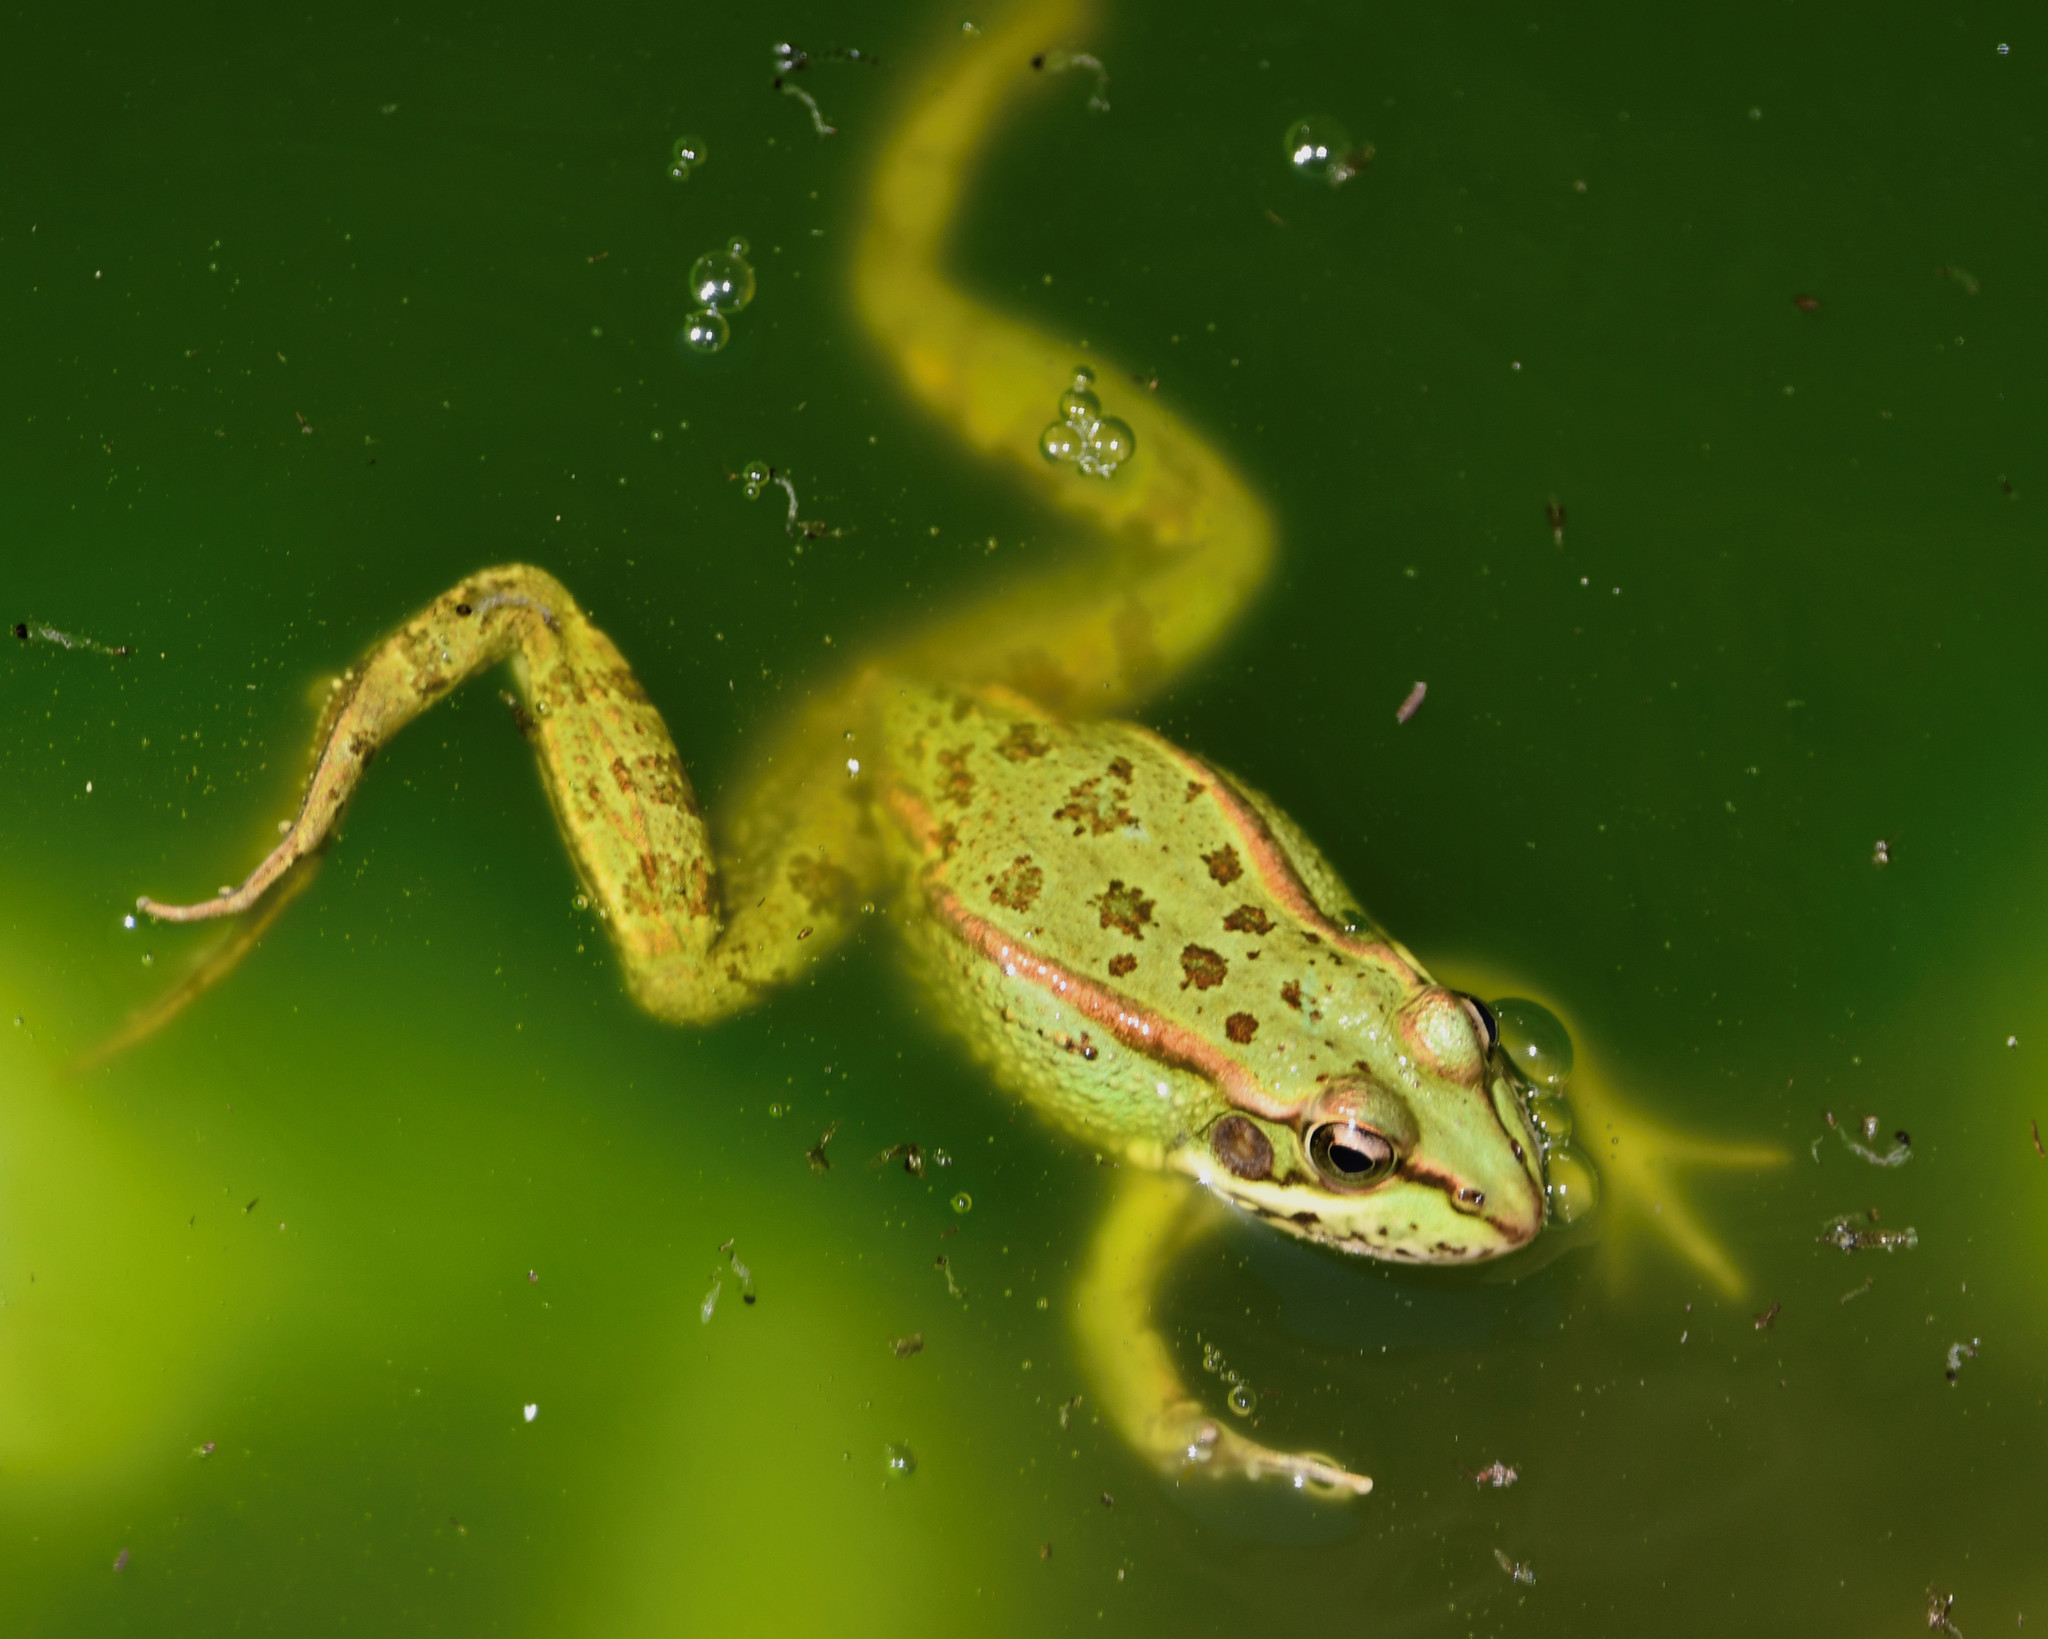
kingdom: Animalia
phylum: Chordata
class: Amphibia
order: Anura
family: Ranidae
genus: Pelophylax
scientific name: Pelophylax perezi
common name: Perez's frog
